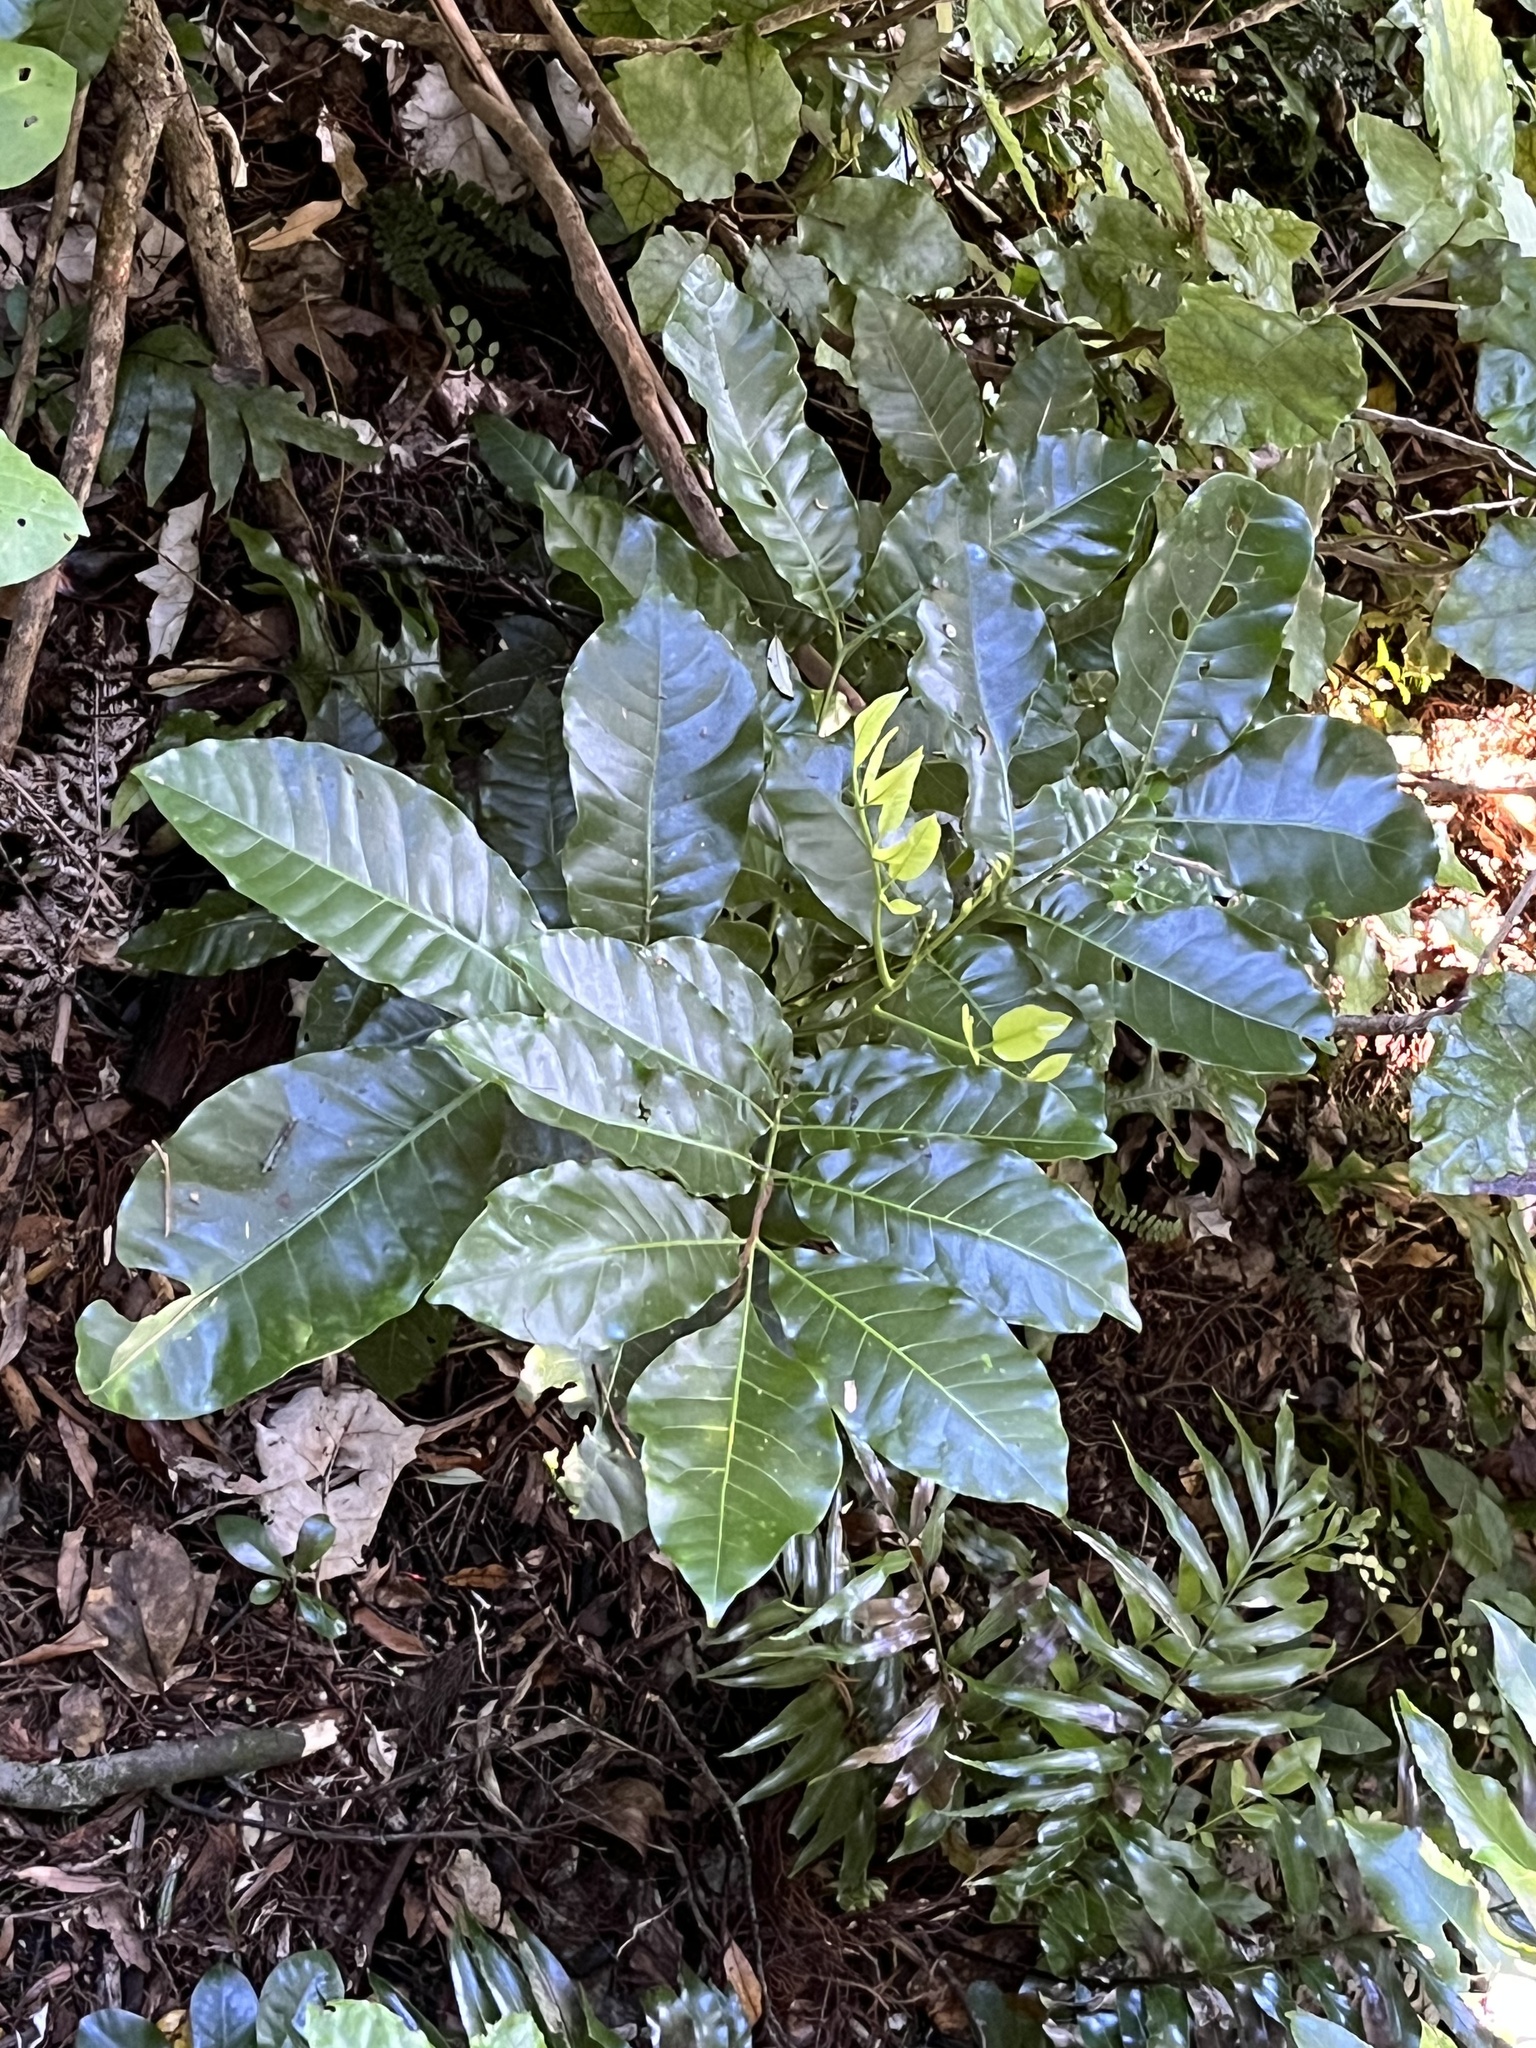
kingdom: Plantae
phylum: Tracheophyta
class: Magnoliopsida
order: Sapindales
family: Meliaceae
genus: Didymocheton
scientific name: Didymocheton spectabilis
